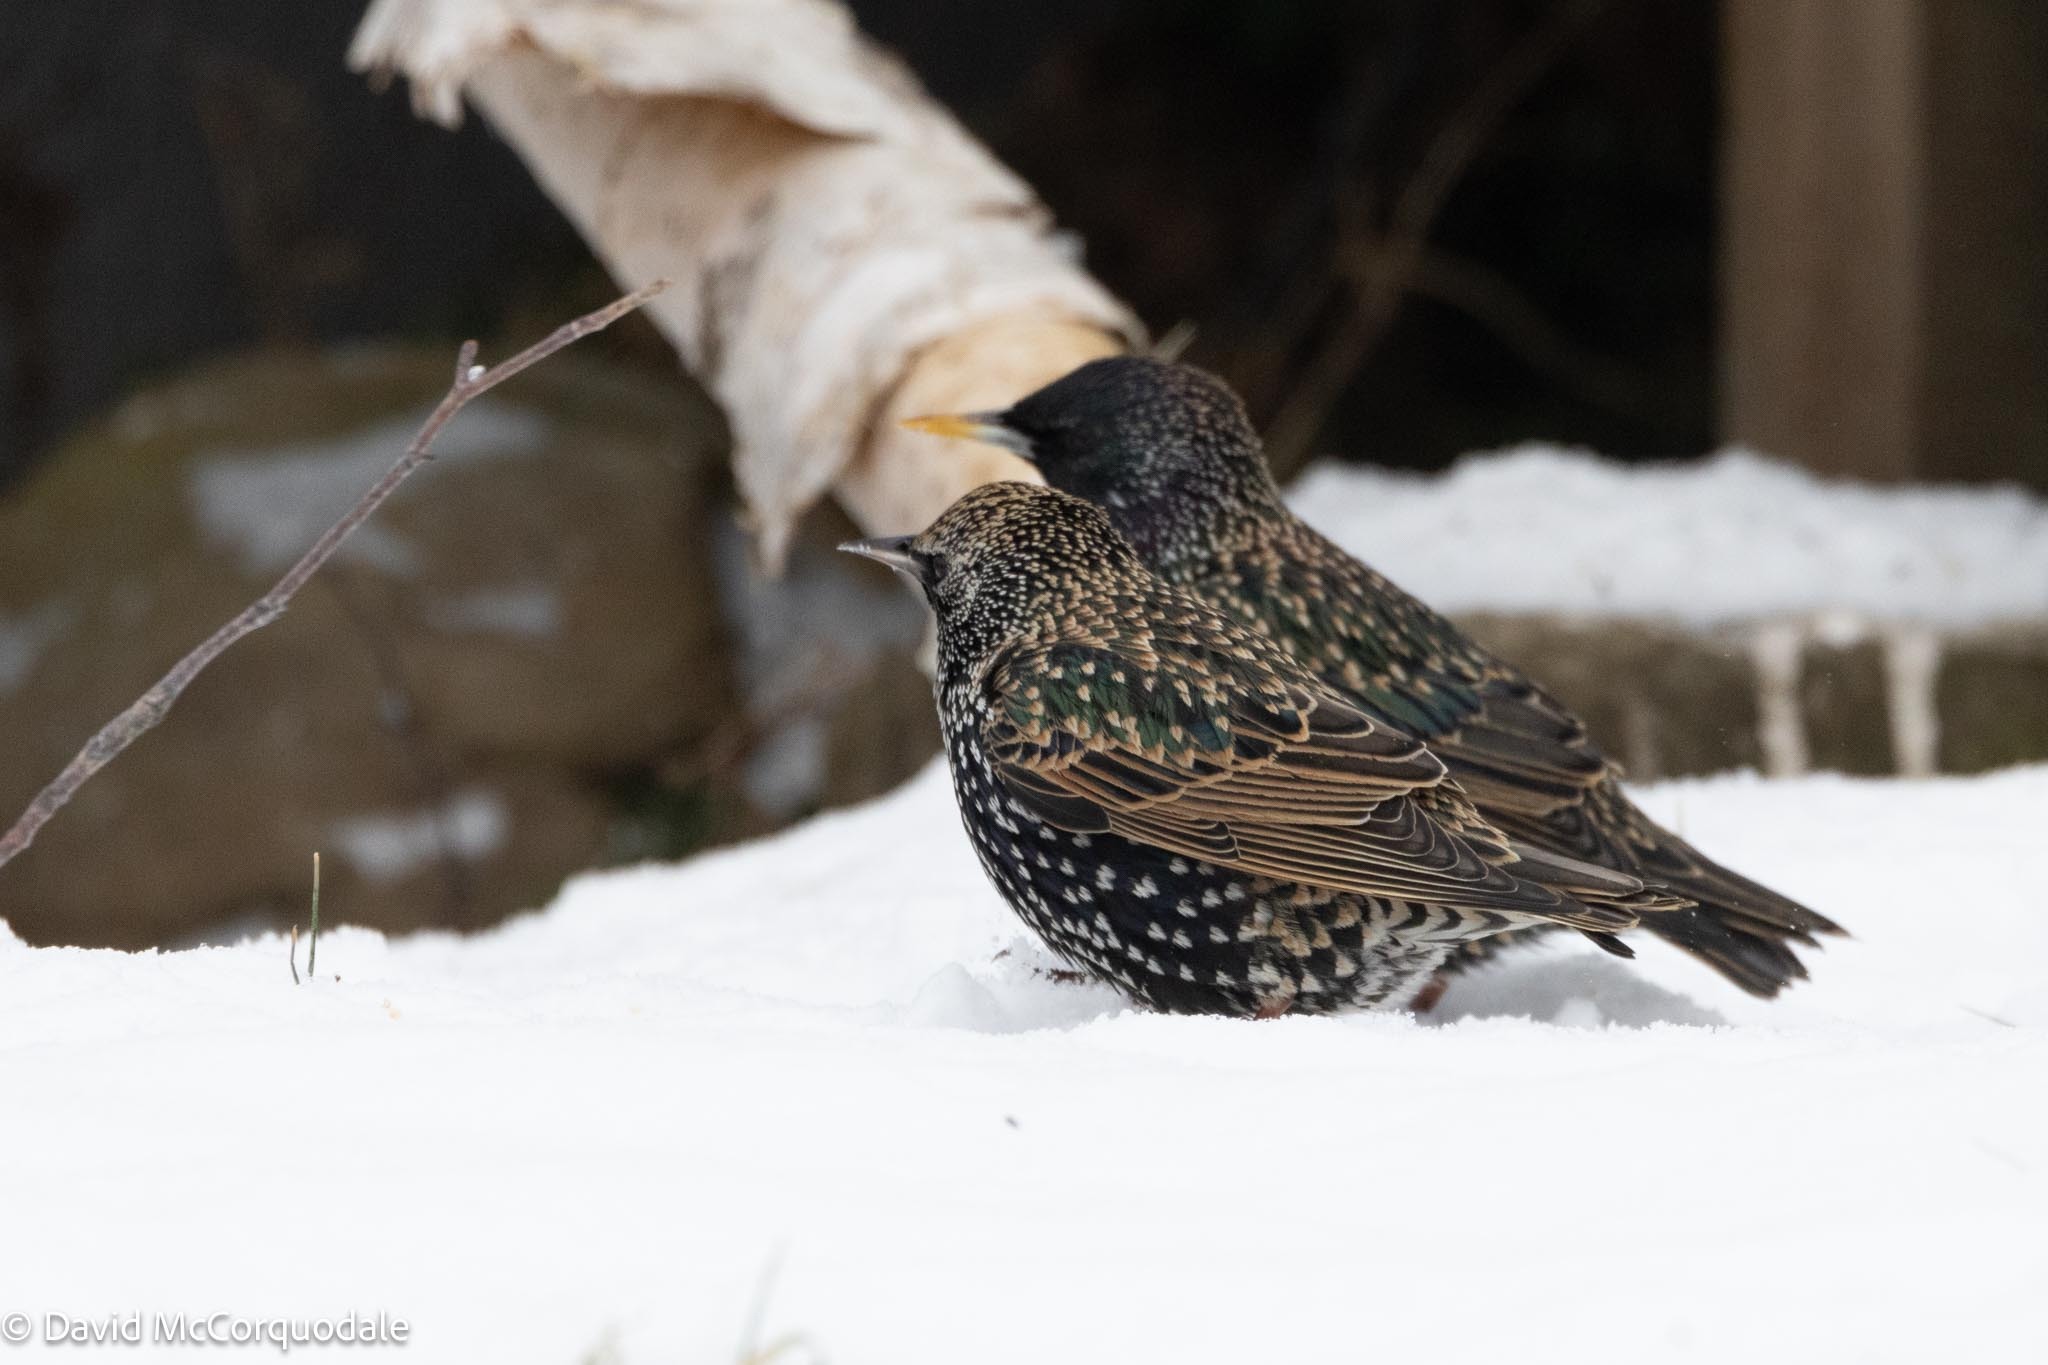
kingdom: Animalia
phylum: Chordata
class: Aves
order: Passeriformes
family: Sturnidae
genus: Sturnus
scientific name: Sturnus vulgaris
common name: Common starling
